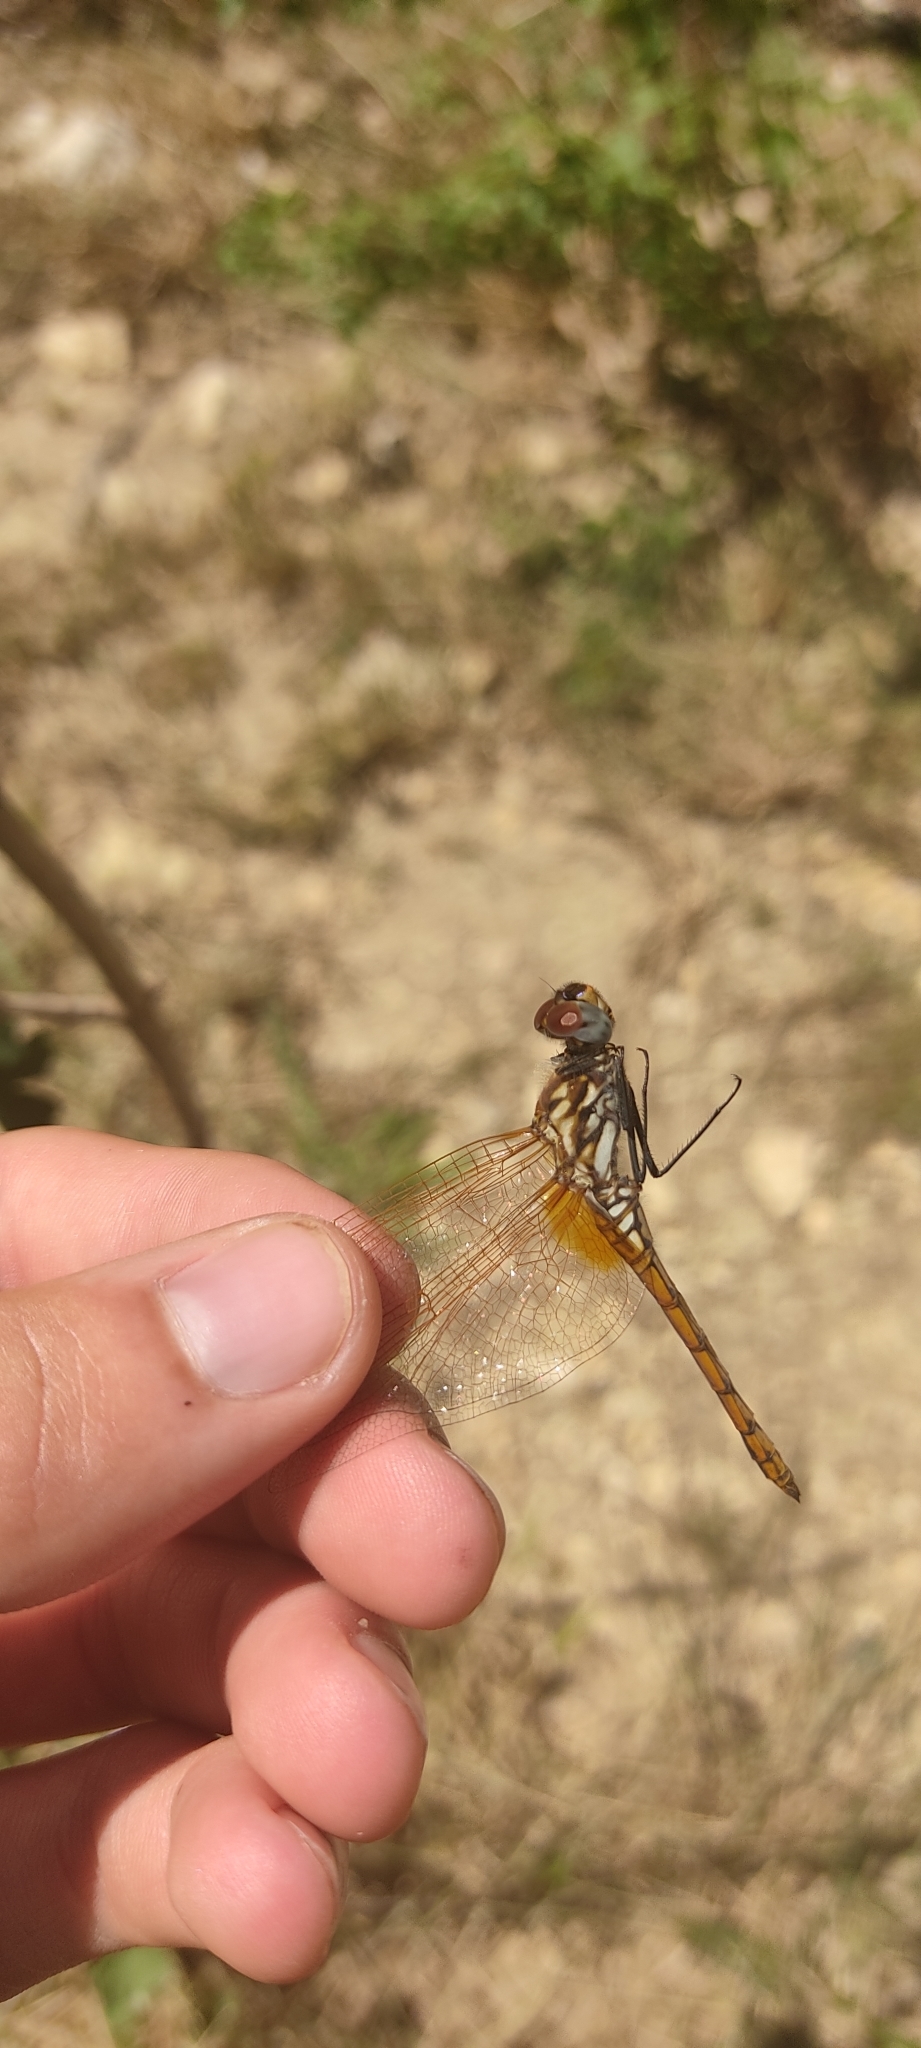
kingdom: Animalia
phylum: Arthropoda
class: Insecta
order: Odonata
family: Libellulidae
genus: Trithemis
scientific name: Trithemis annulata
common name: Violet dropwing
